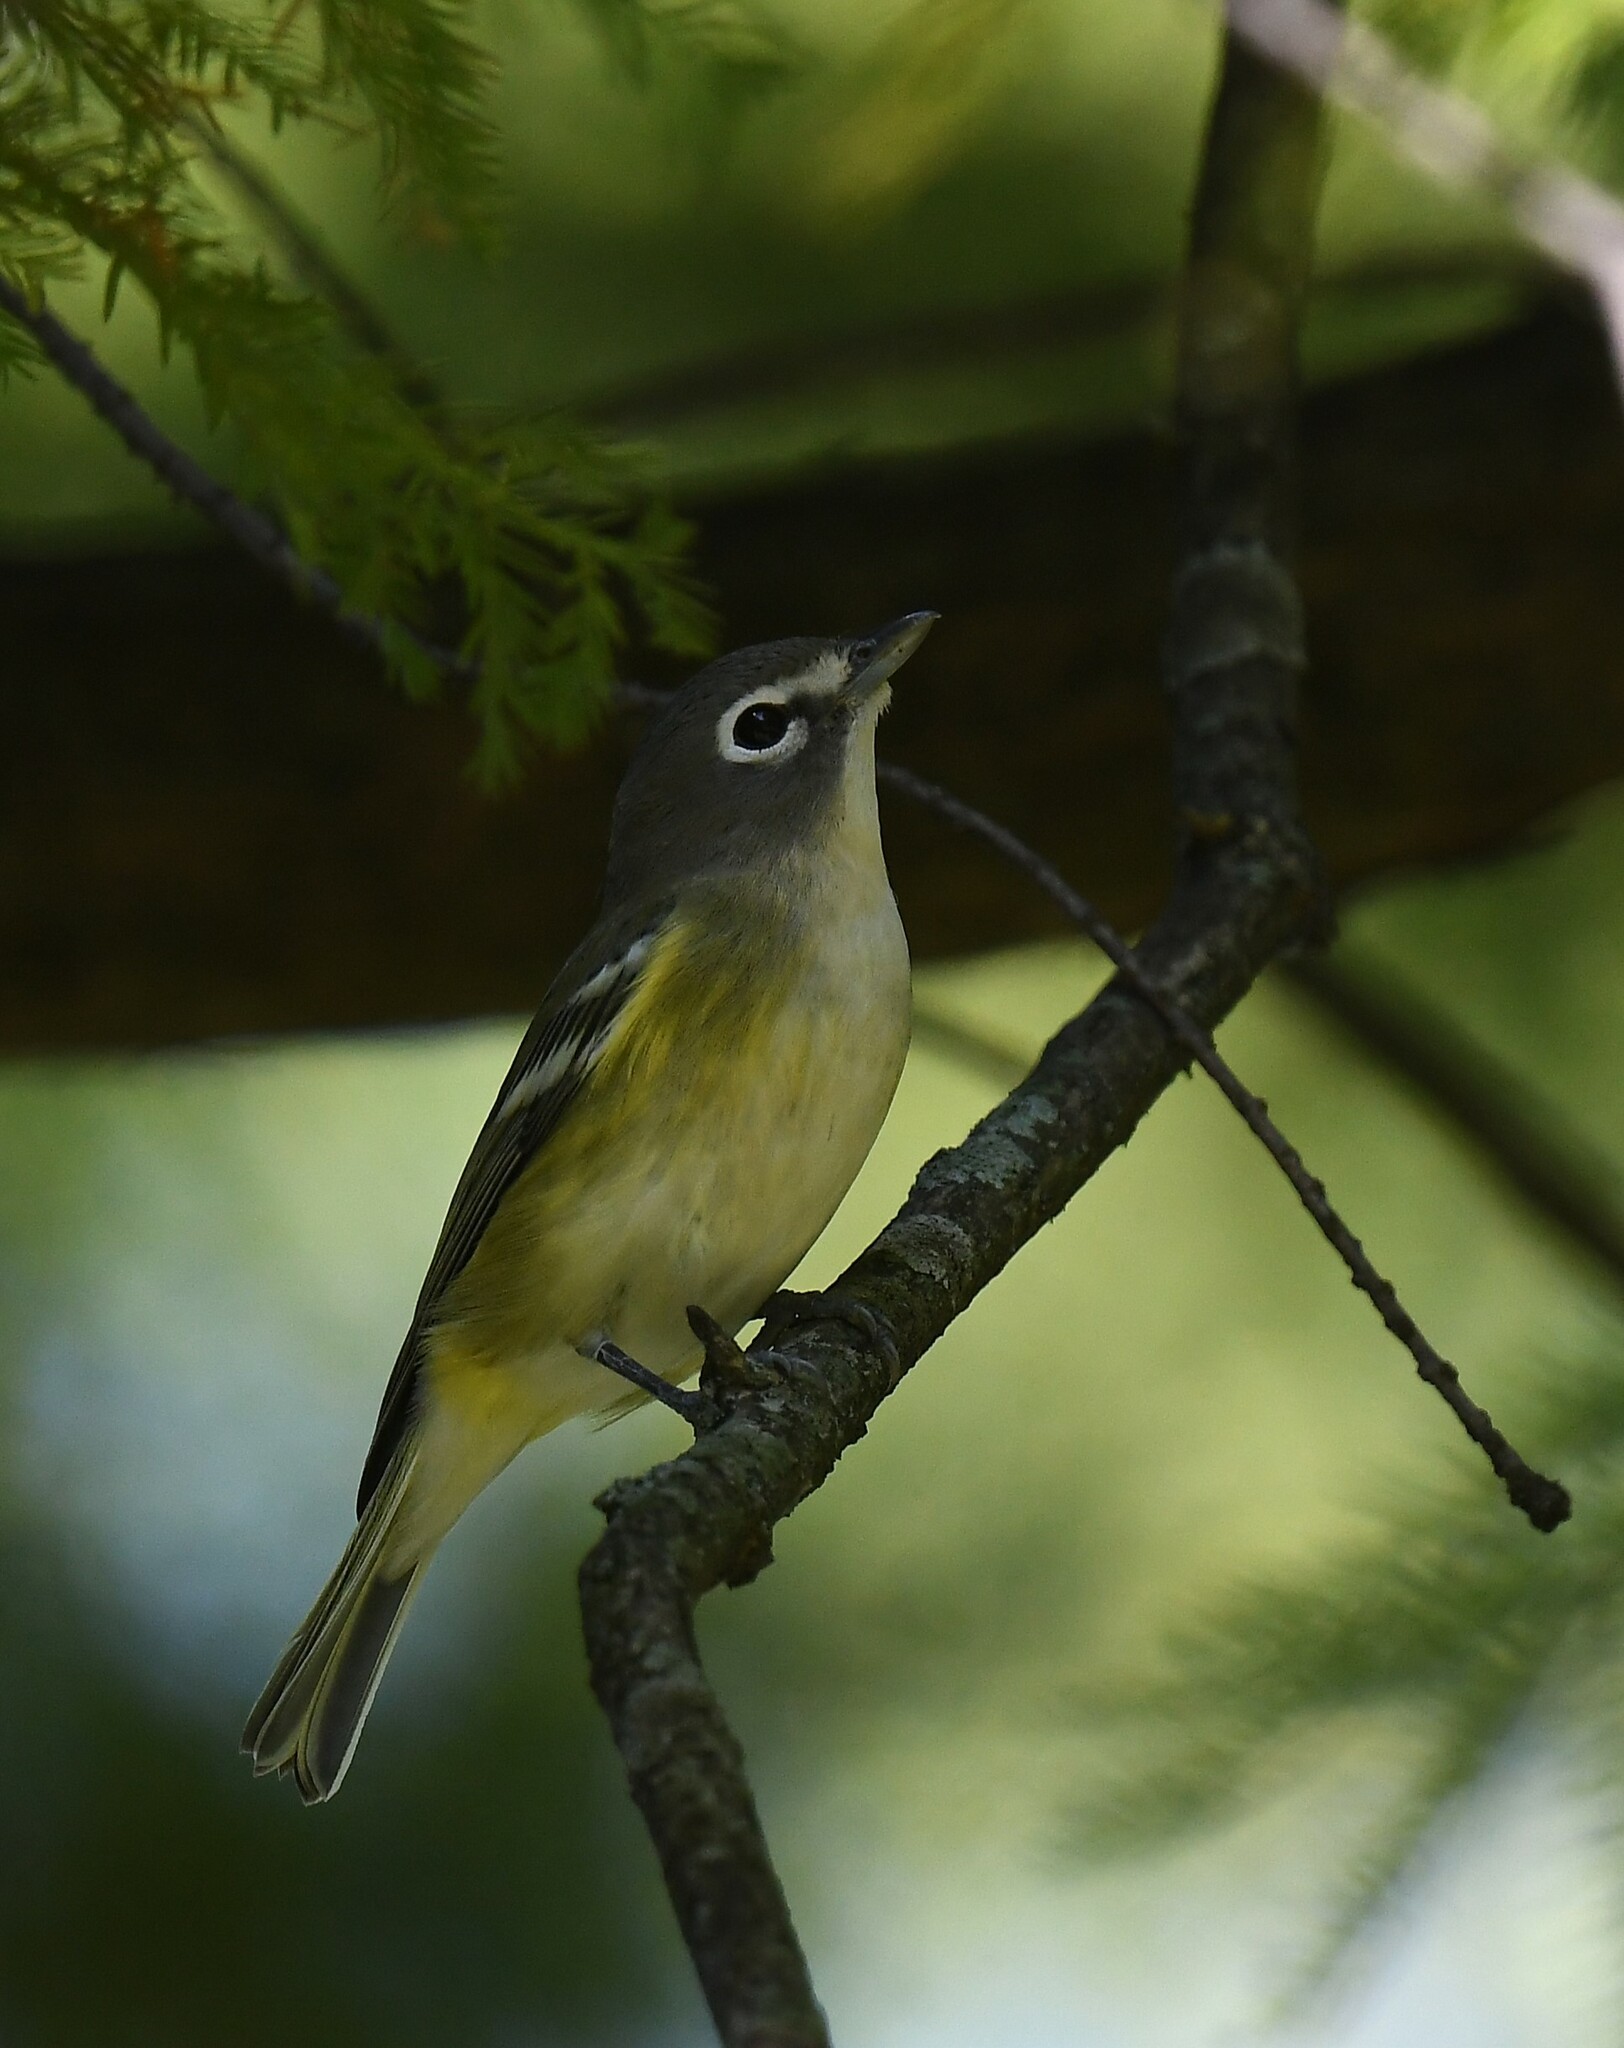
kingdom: Animalia
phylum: Chordata
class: Aves
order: Passeriformes
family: Vireonidae
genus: Vireo
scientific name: Vireo solitarius
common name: Blue-headed vireo
